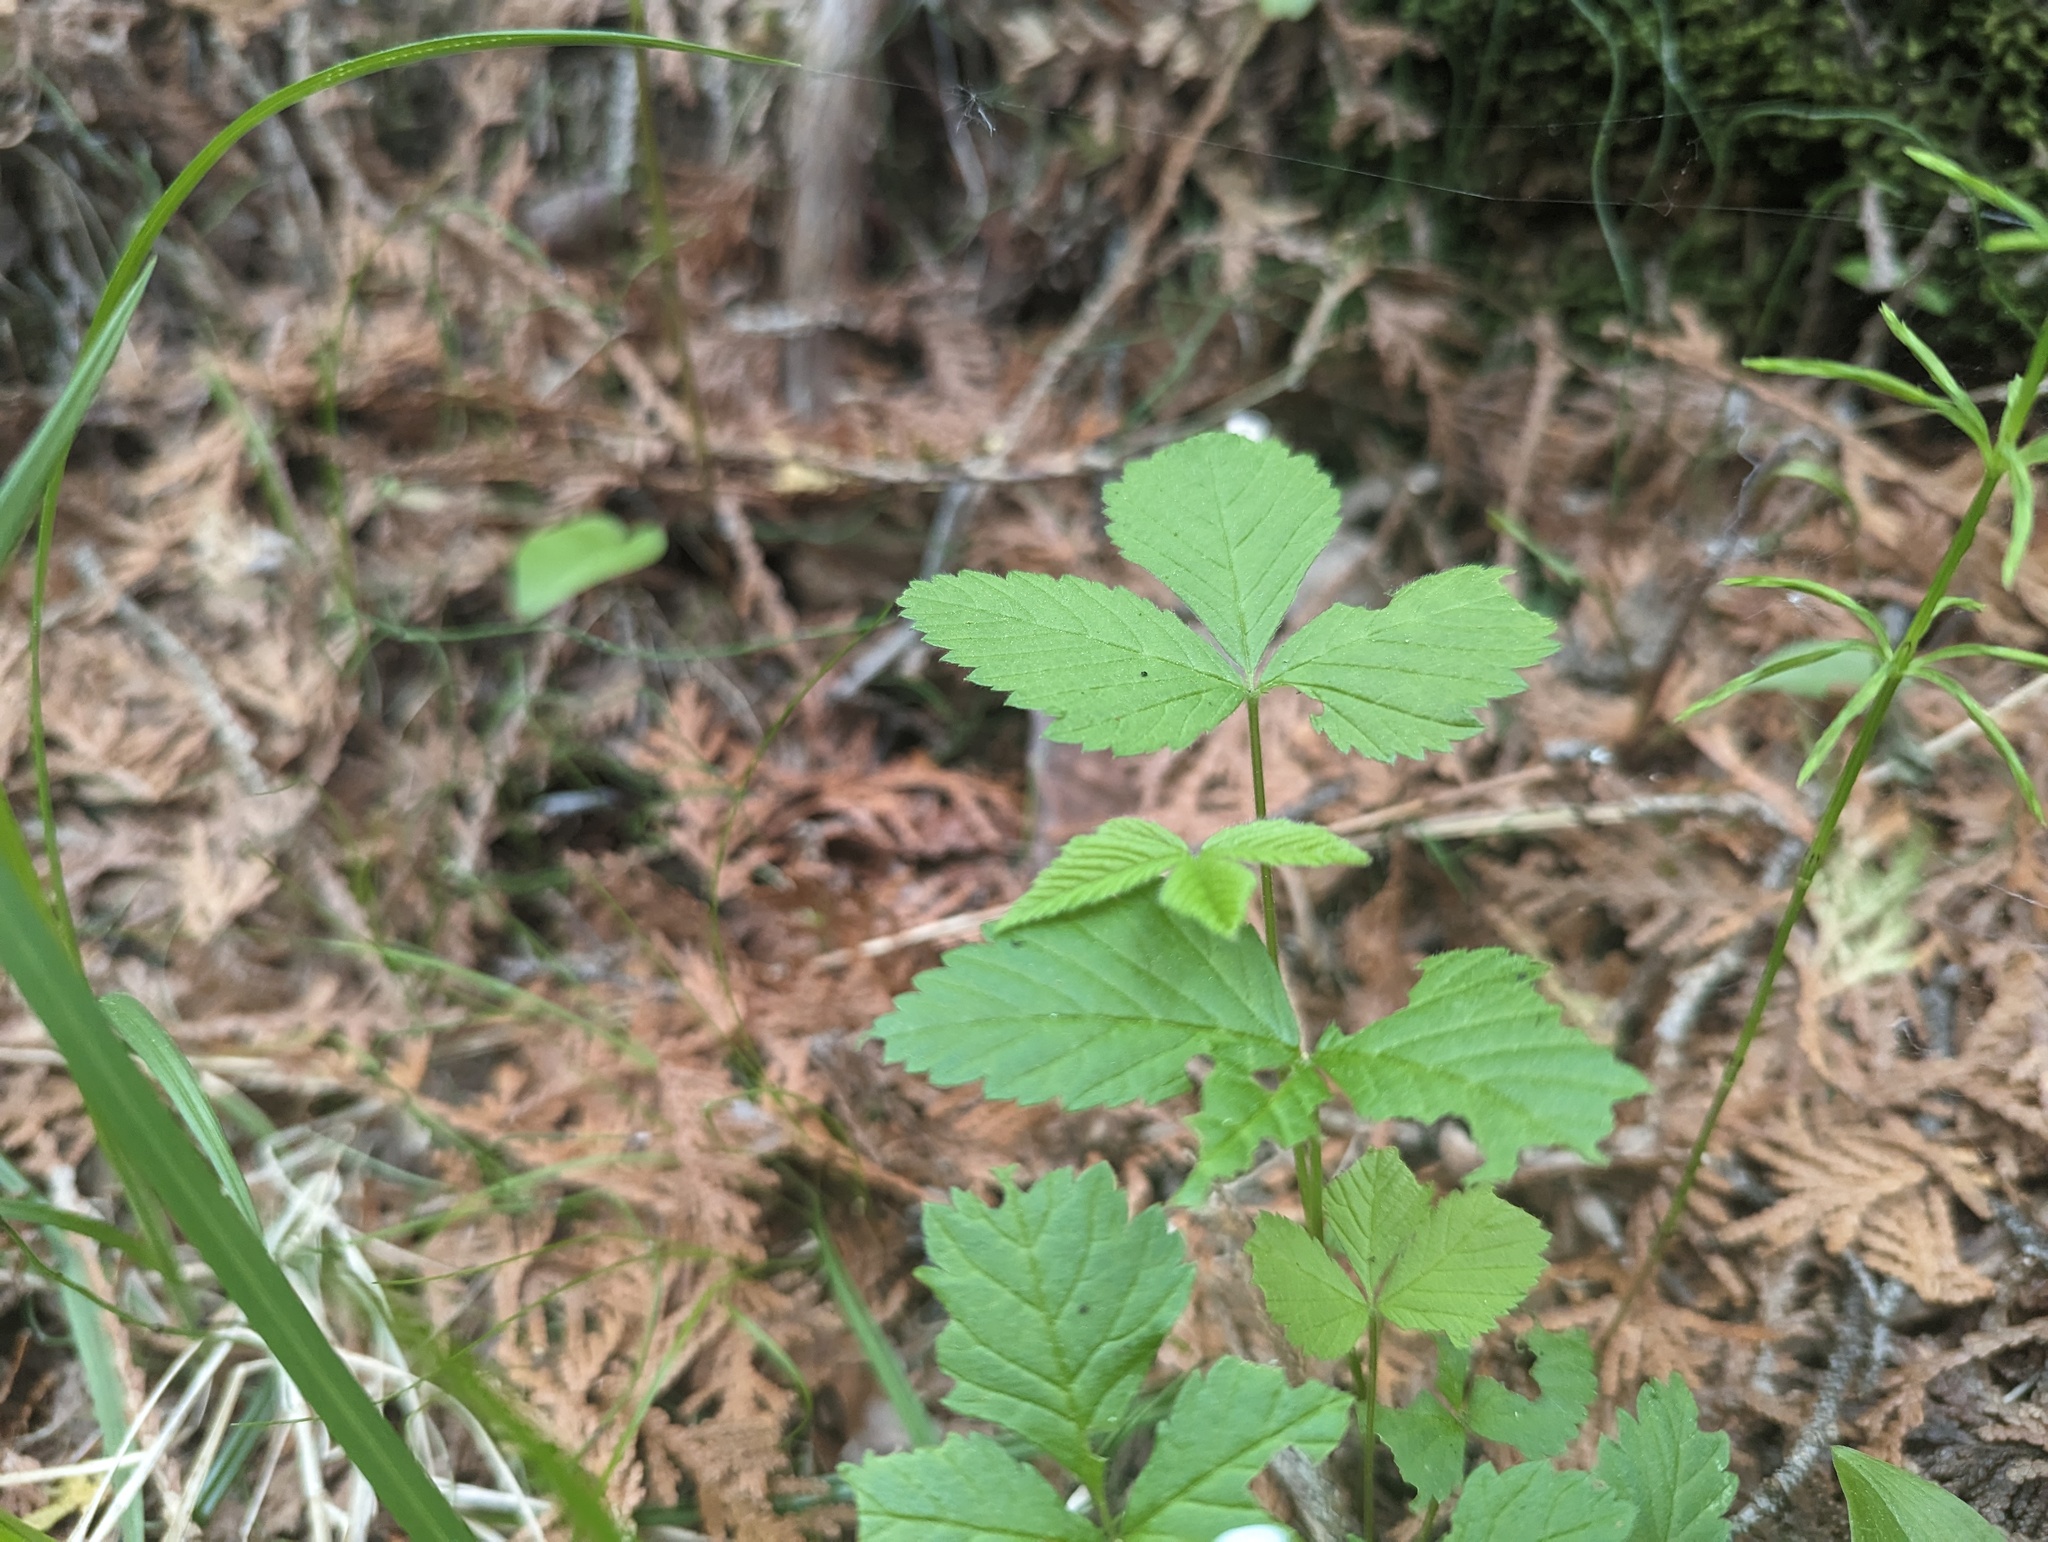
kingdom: Plantae
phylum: Tracheophyta
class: Magnoliopsida
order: Rosales
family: Rosaceae
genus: Rubus
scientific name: Rubus pubescens
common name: Dwarf raspberry
